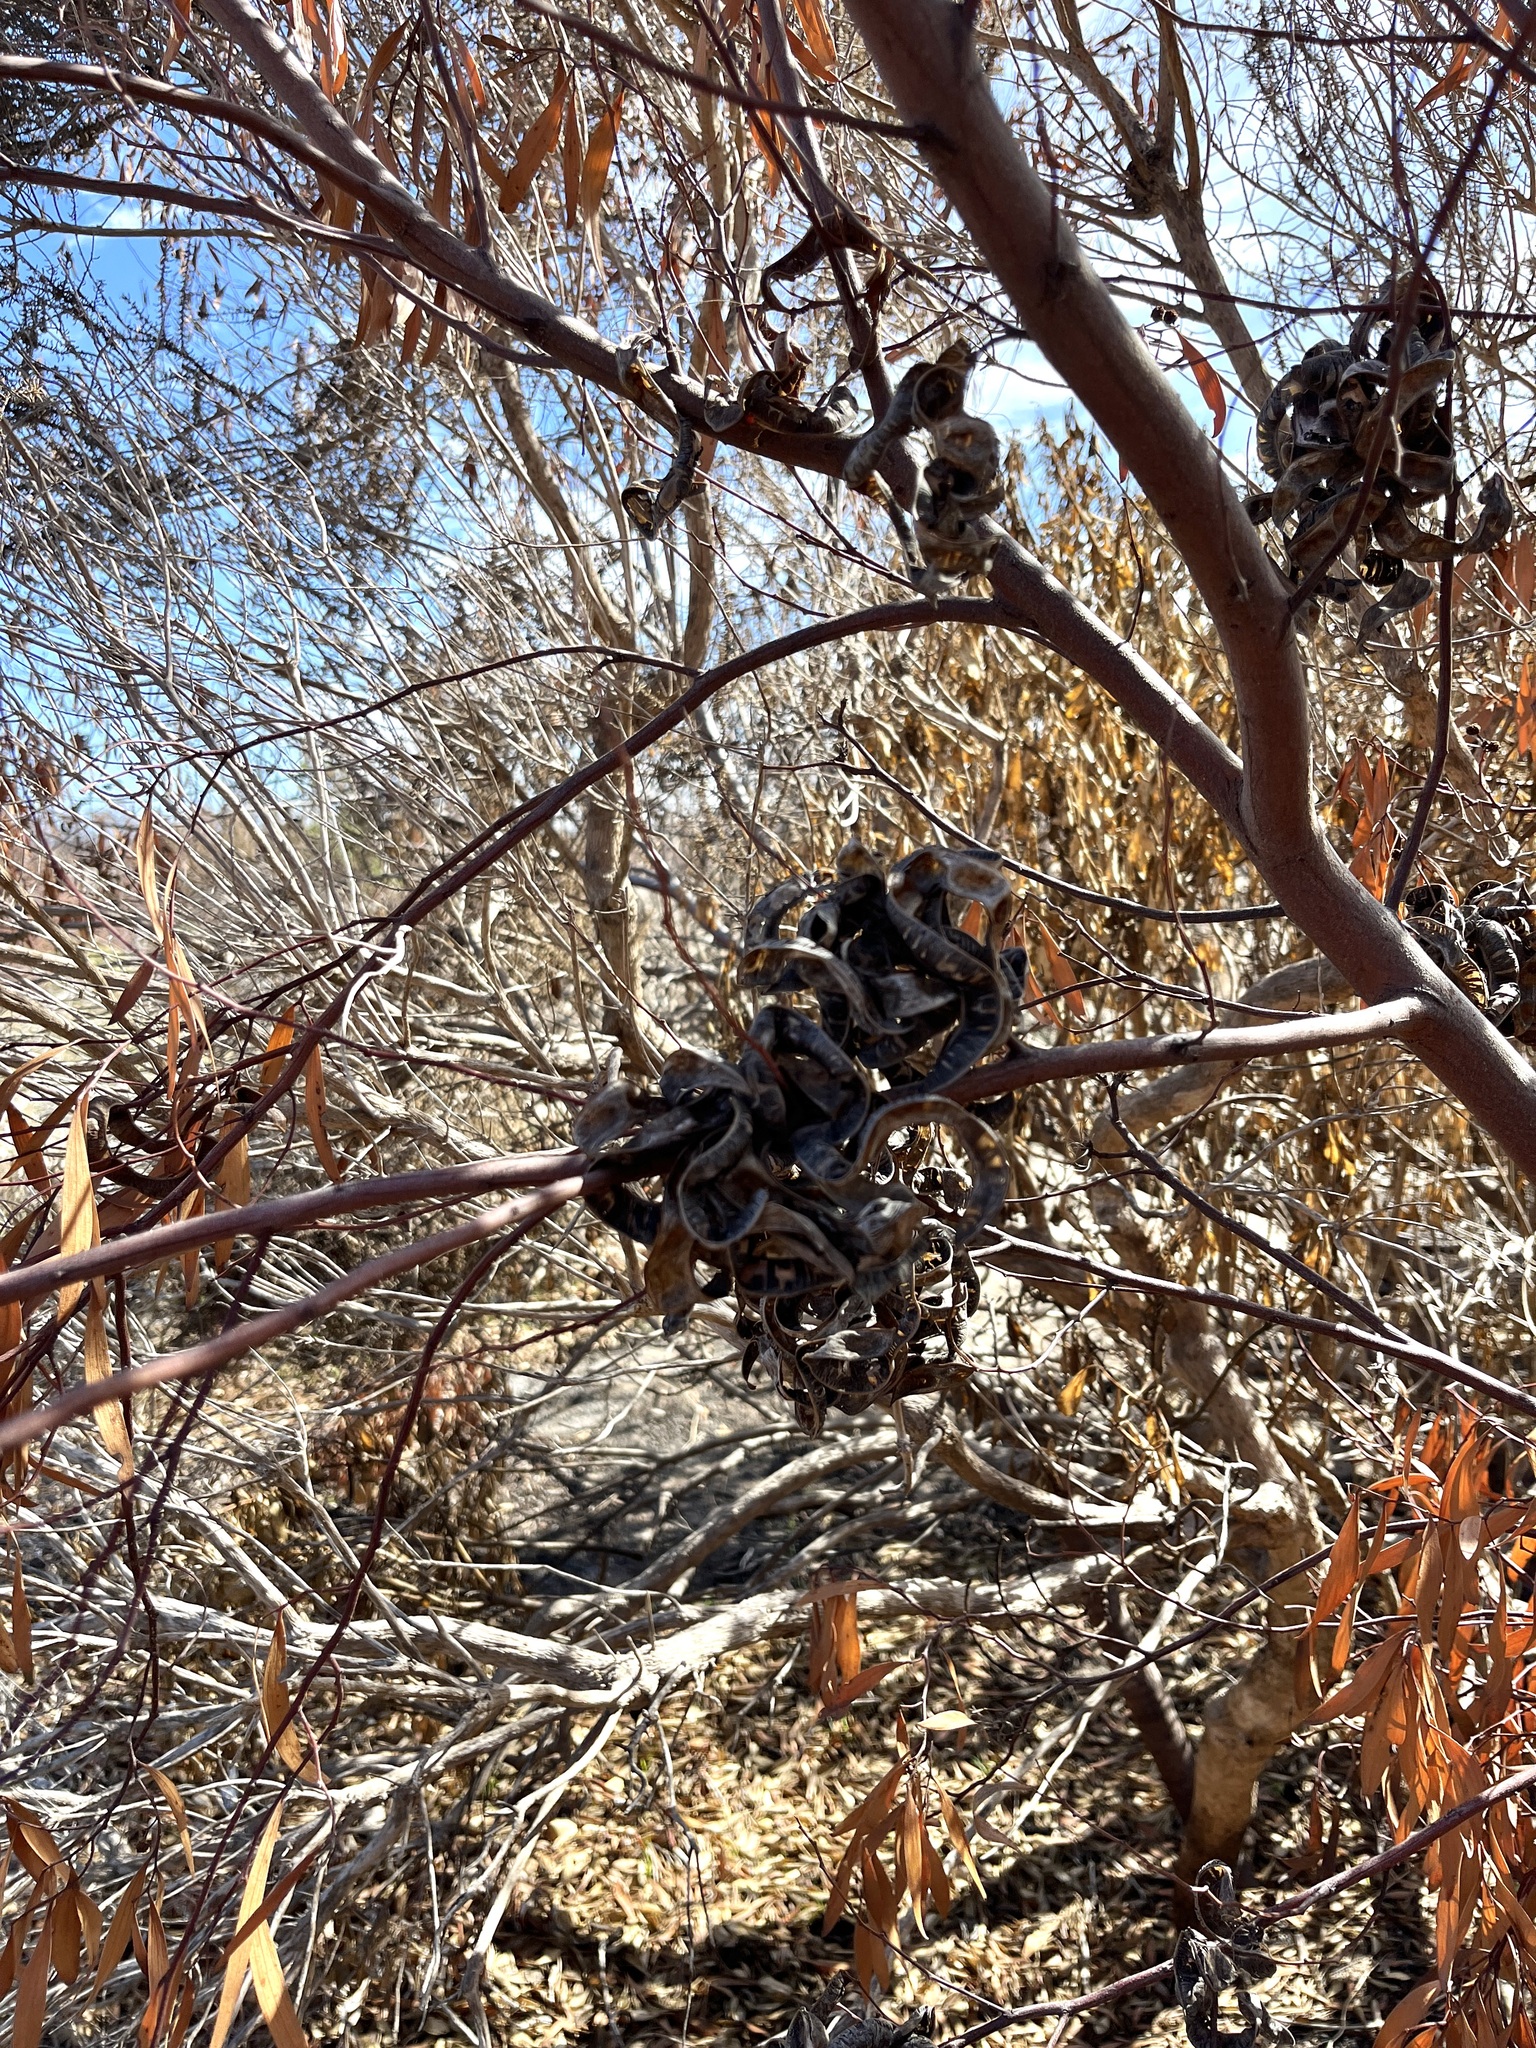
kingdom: Plantae
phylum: Tracheophyta
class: Magnoliopsida
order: Fabales
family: Fabaceae
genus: Acacia
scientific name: Acacia cyclops
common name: Coastal wattle
